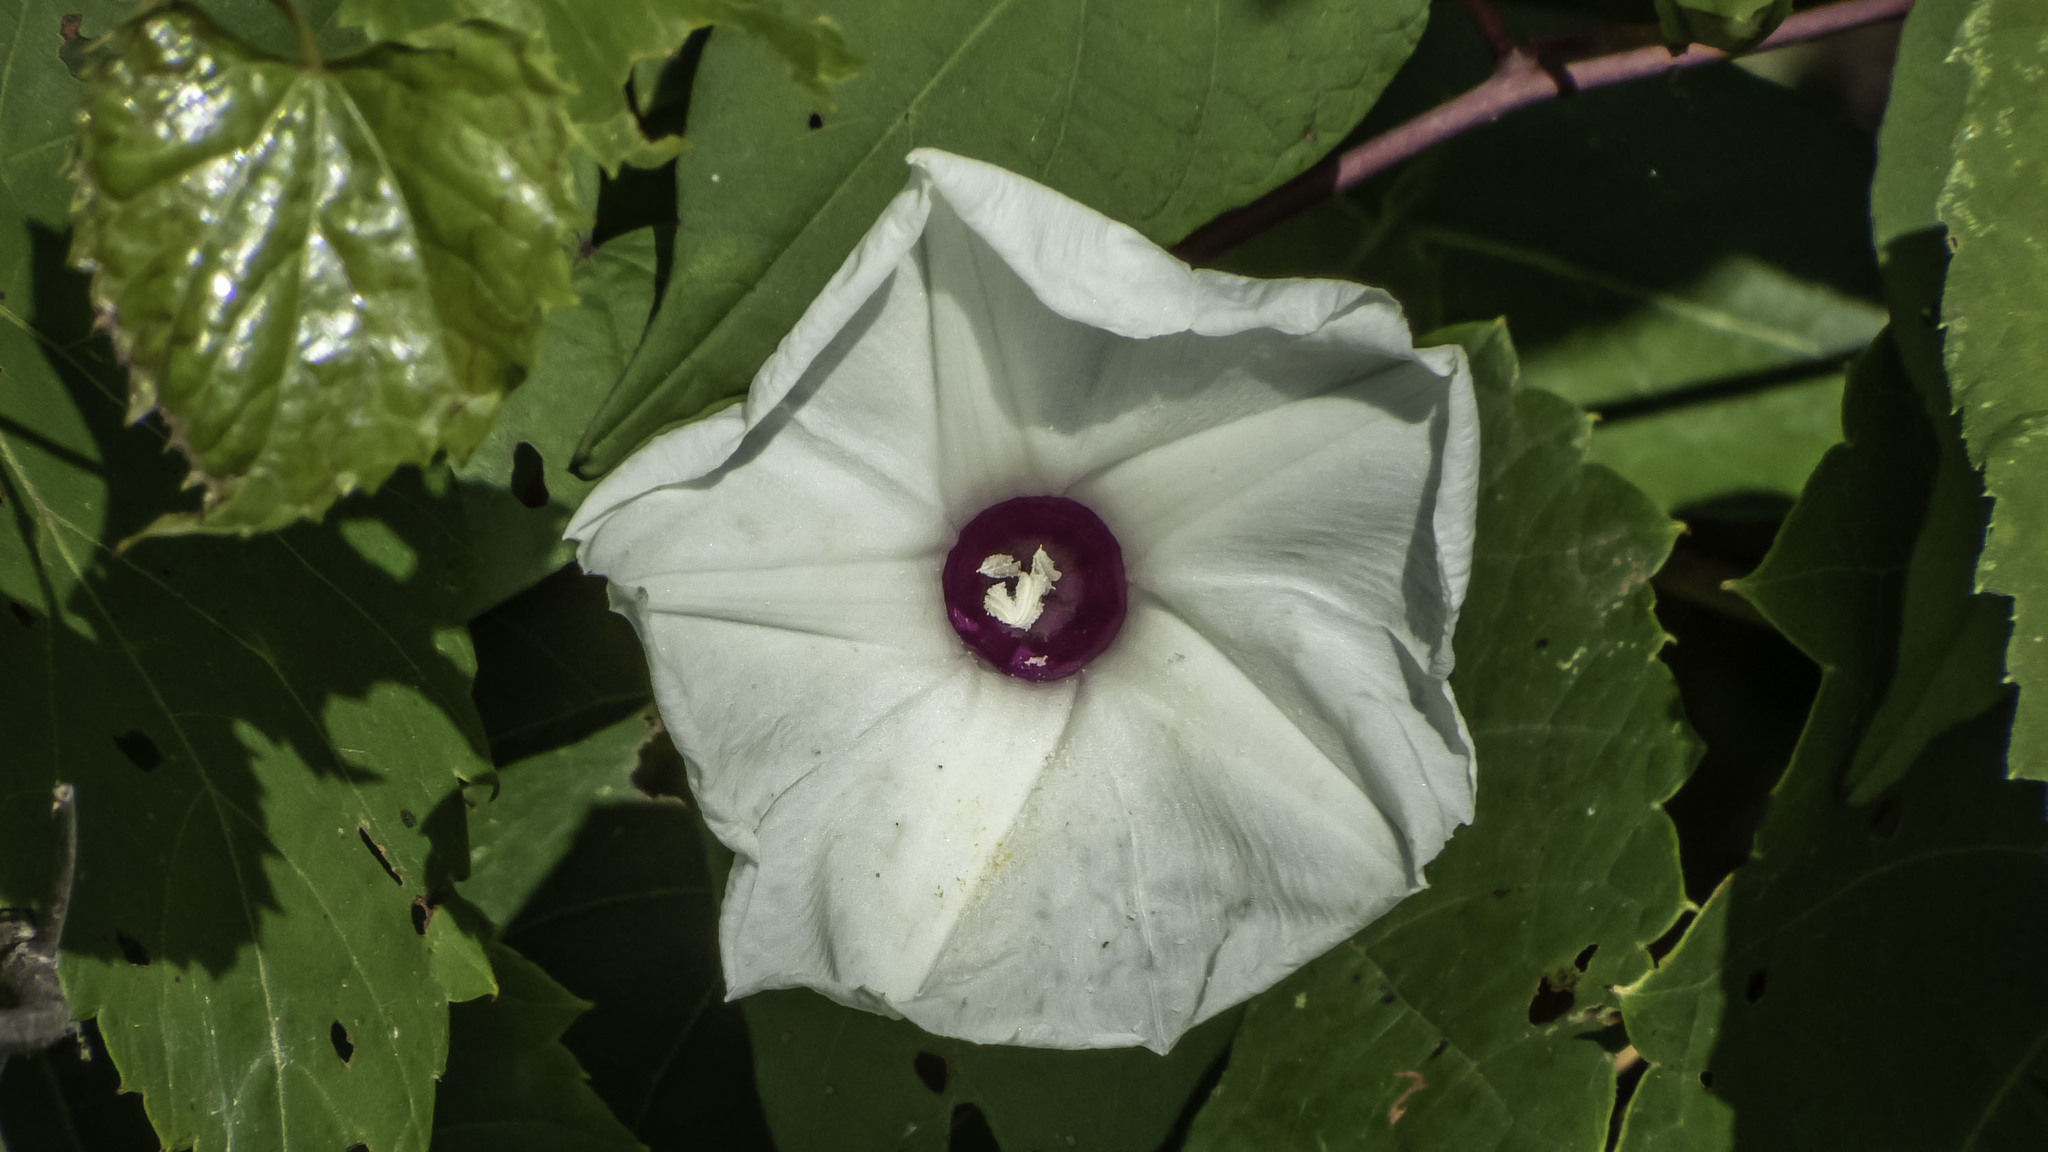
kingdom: Plantae
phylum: Tracheophyta
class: Magnoliopsida
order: Solanales
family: Convolvulaceae
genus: Ipomoea
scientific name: Ipomoea pandurata
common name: Man-of-the-earth
